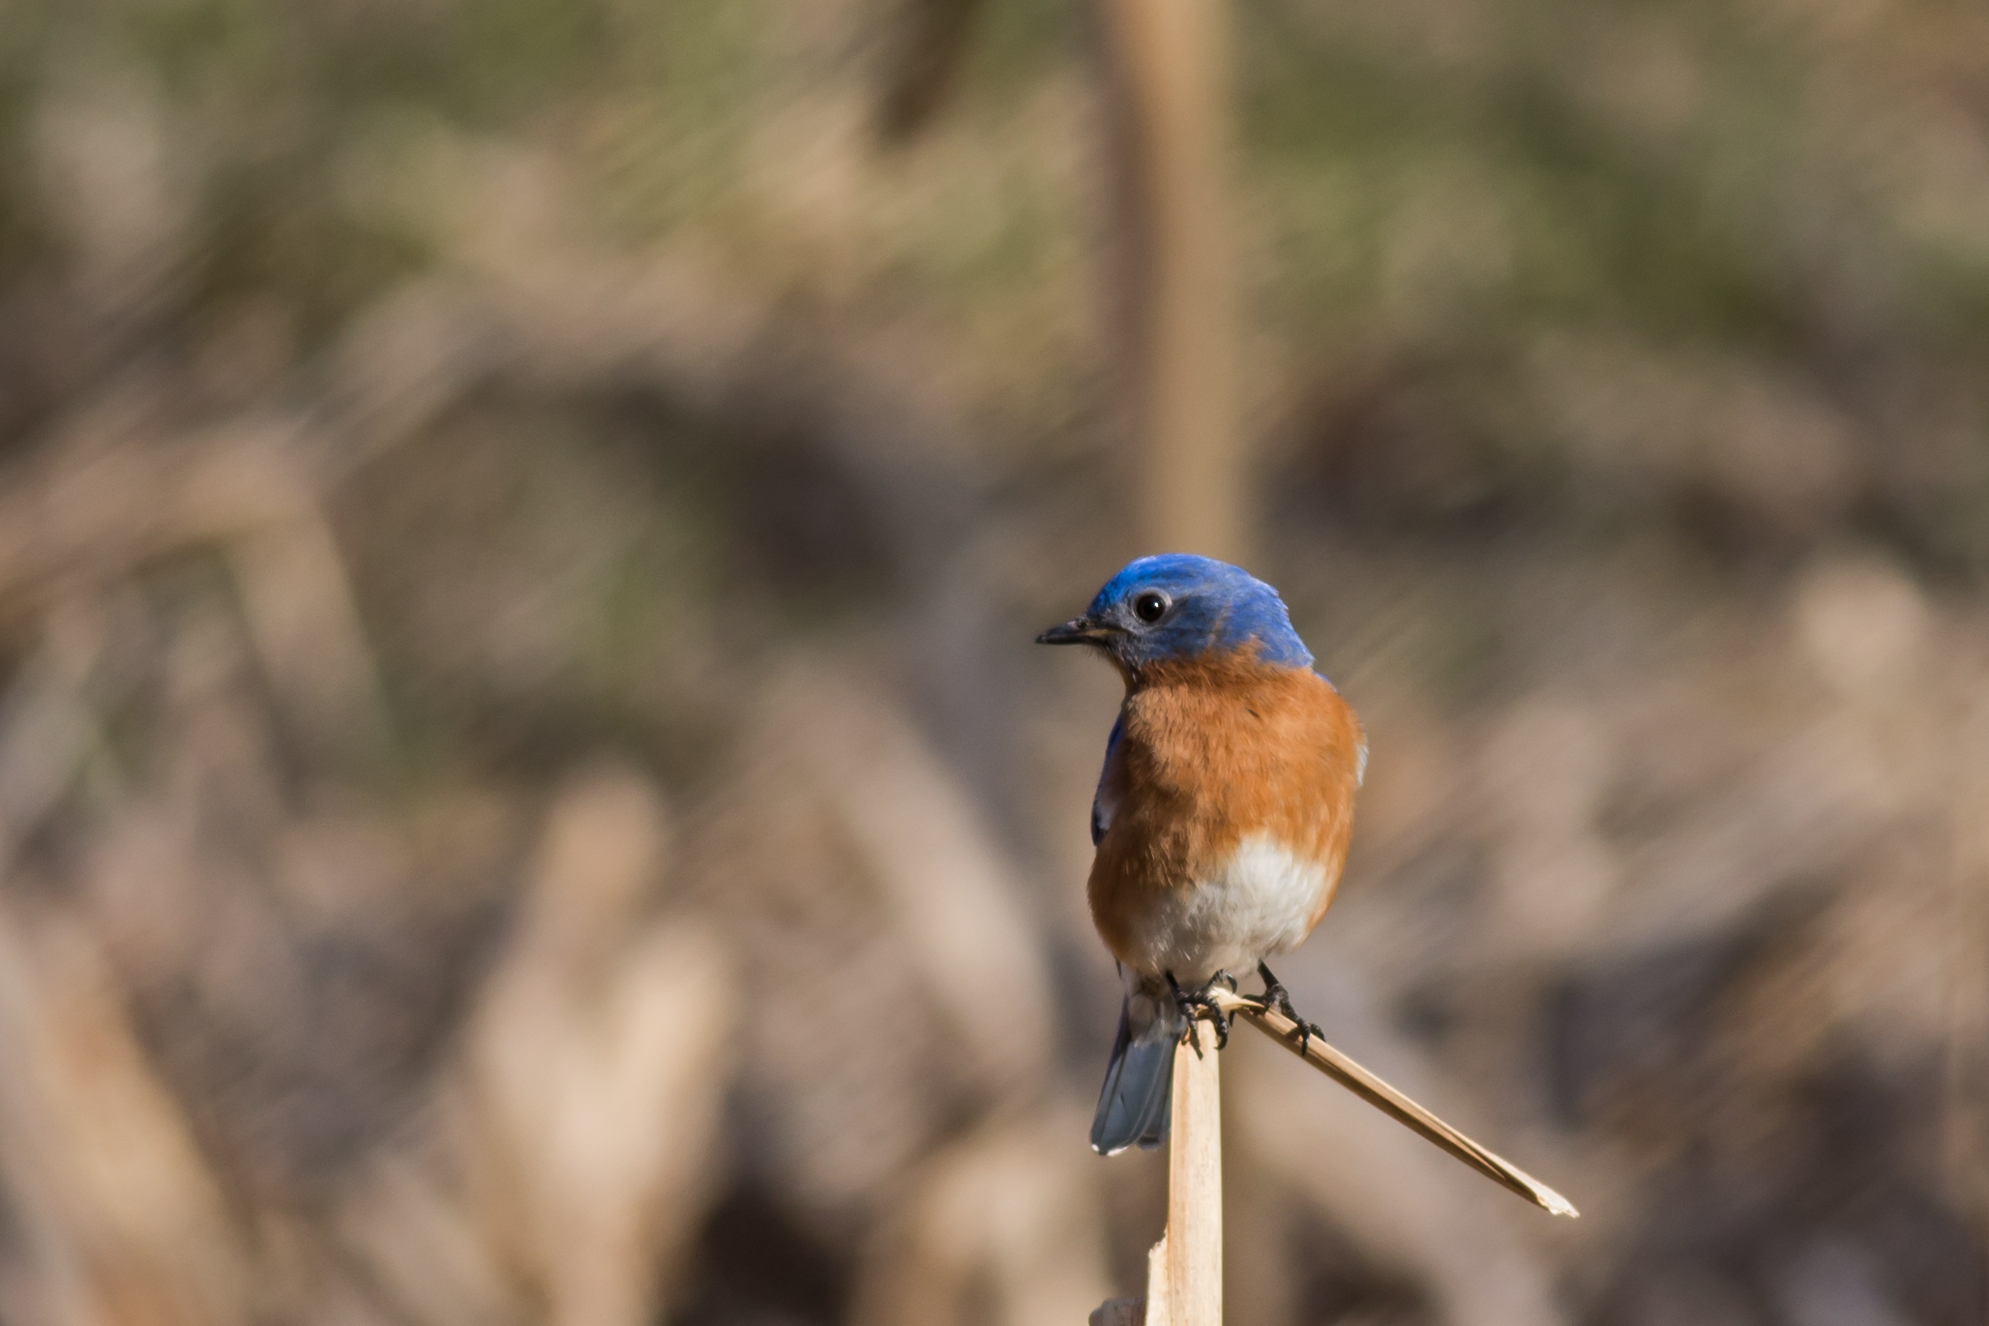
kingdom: Animalia
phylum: Chordata
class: Aves
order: Passeriformes
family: Turdidae
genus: Sialia
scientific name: Sialia sialis
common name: Eastern bluebird
